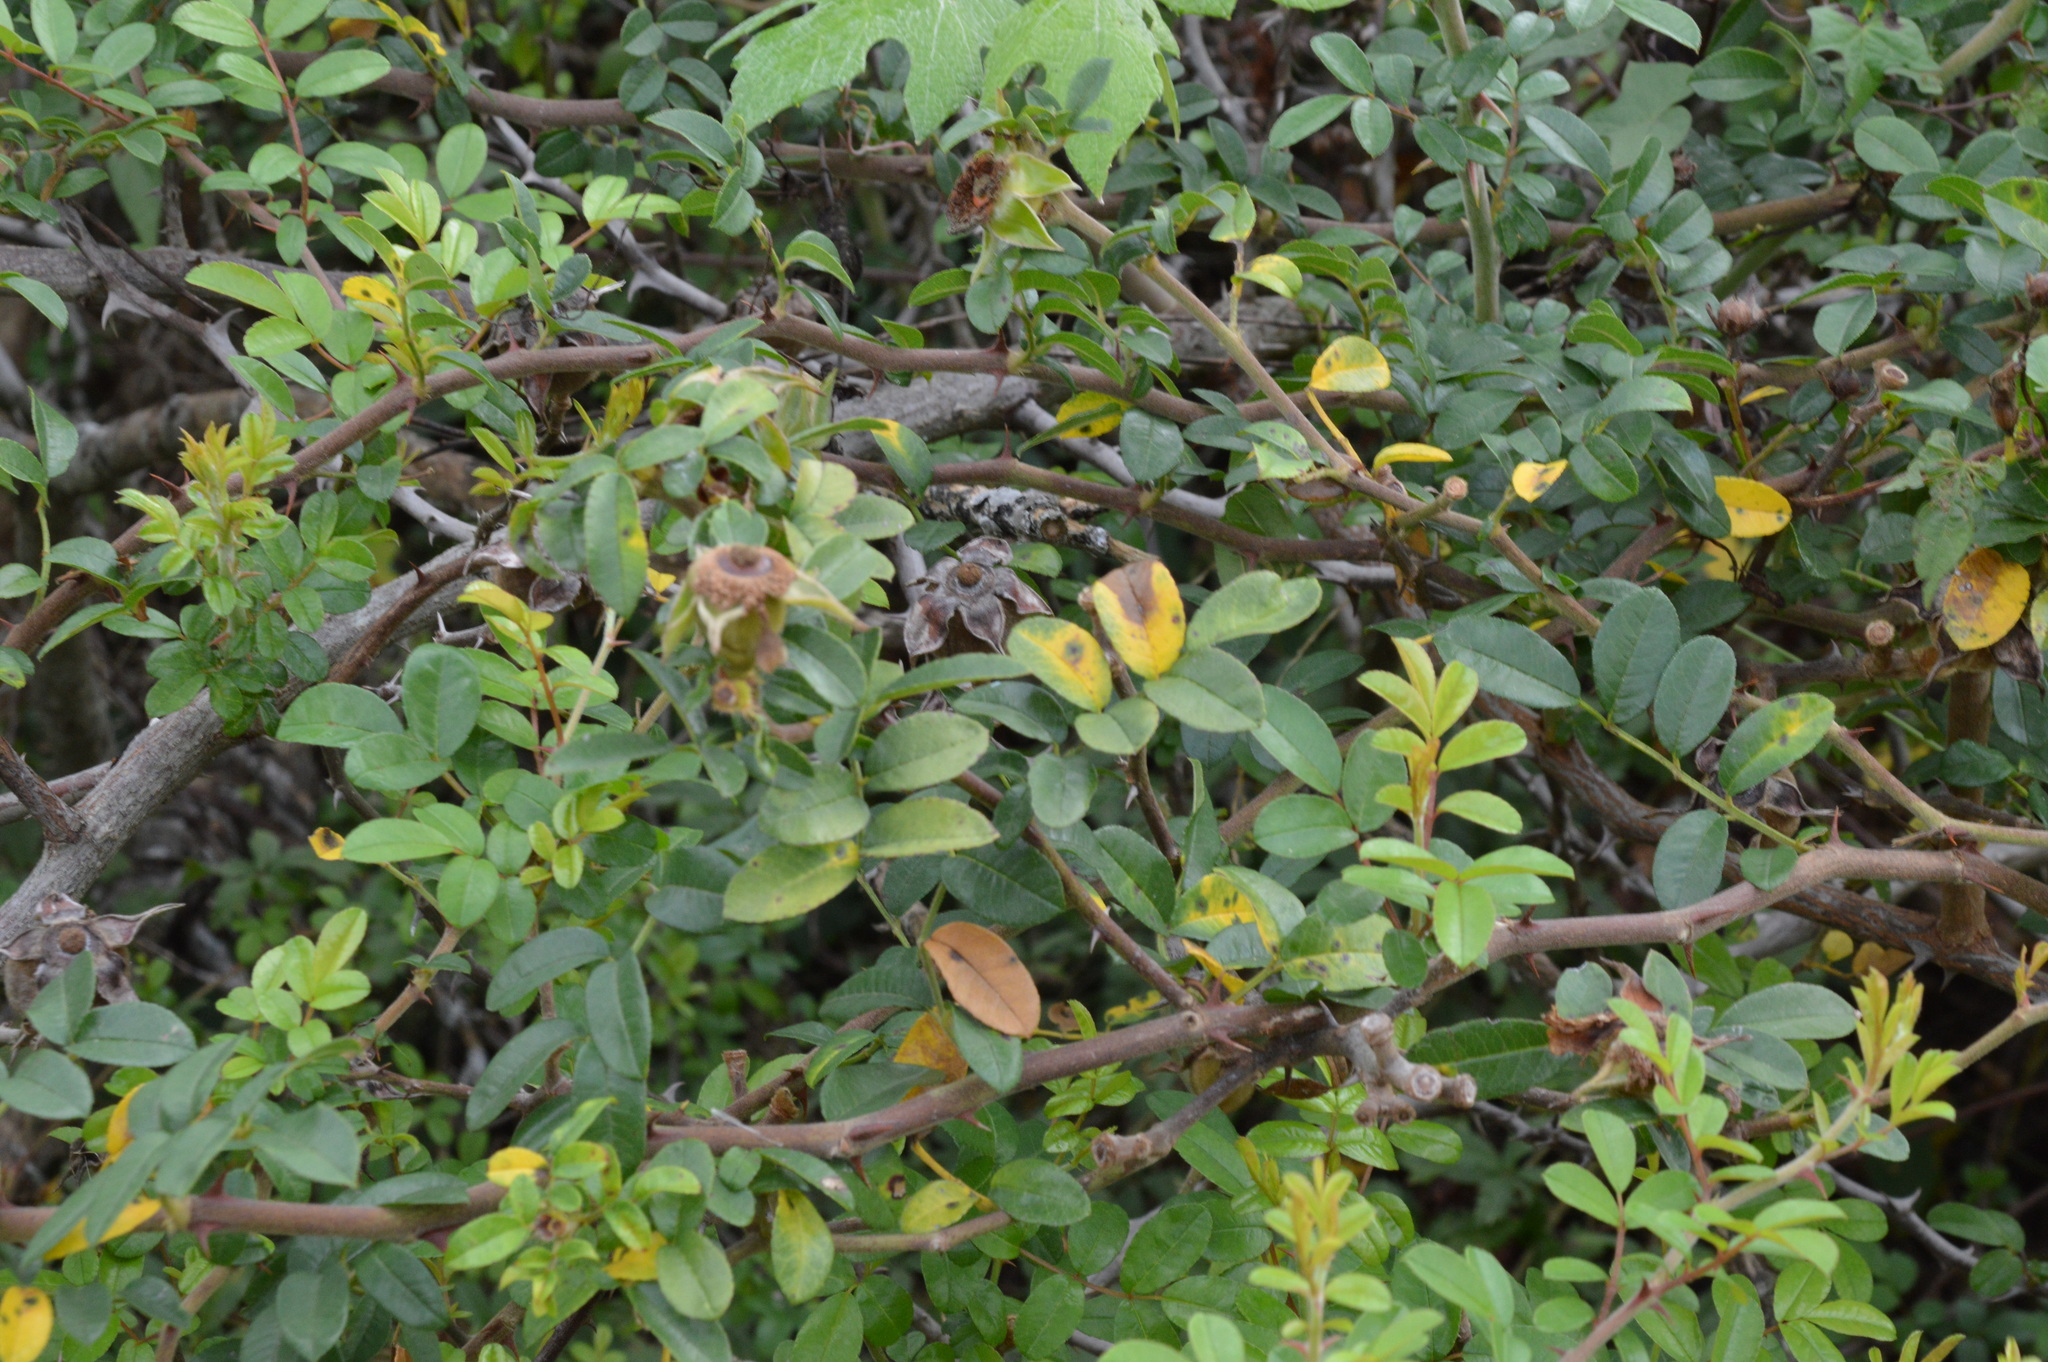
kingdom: Plantae
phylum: Tracheophyta
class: Magnoliopsida
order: Rosales
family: Rosaceae
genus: Rosa
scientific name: Rosa bracteata
